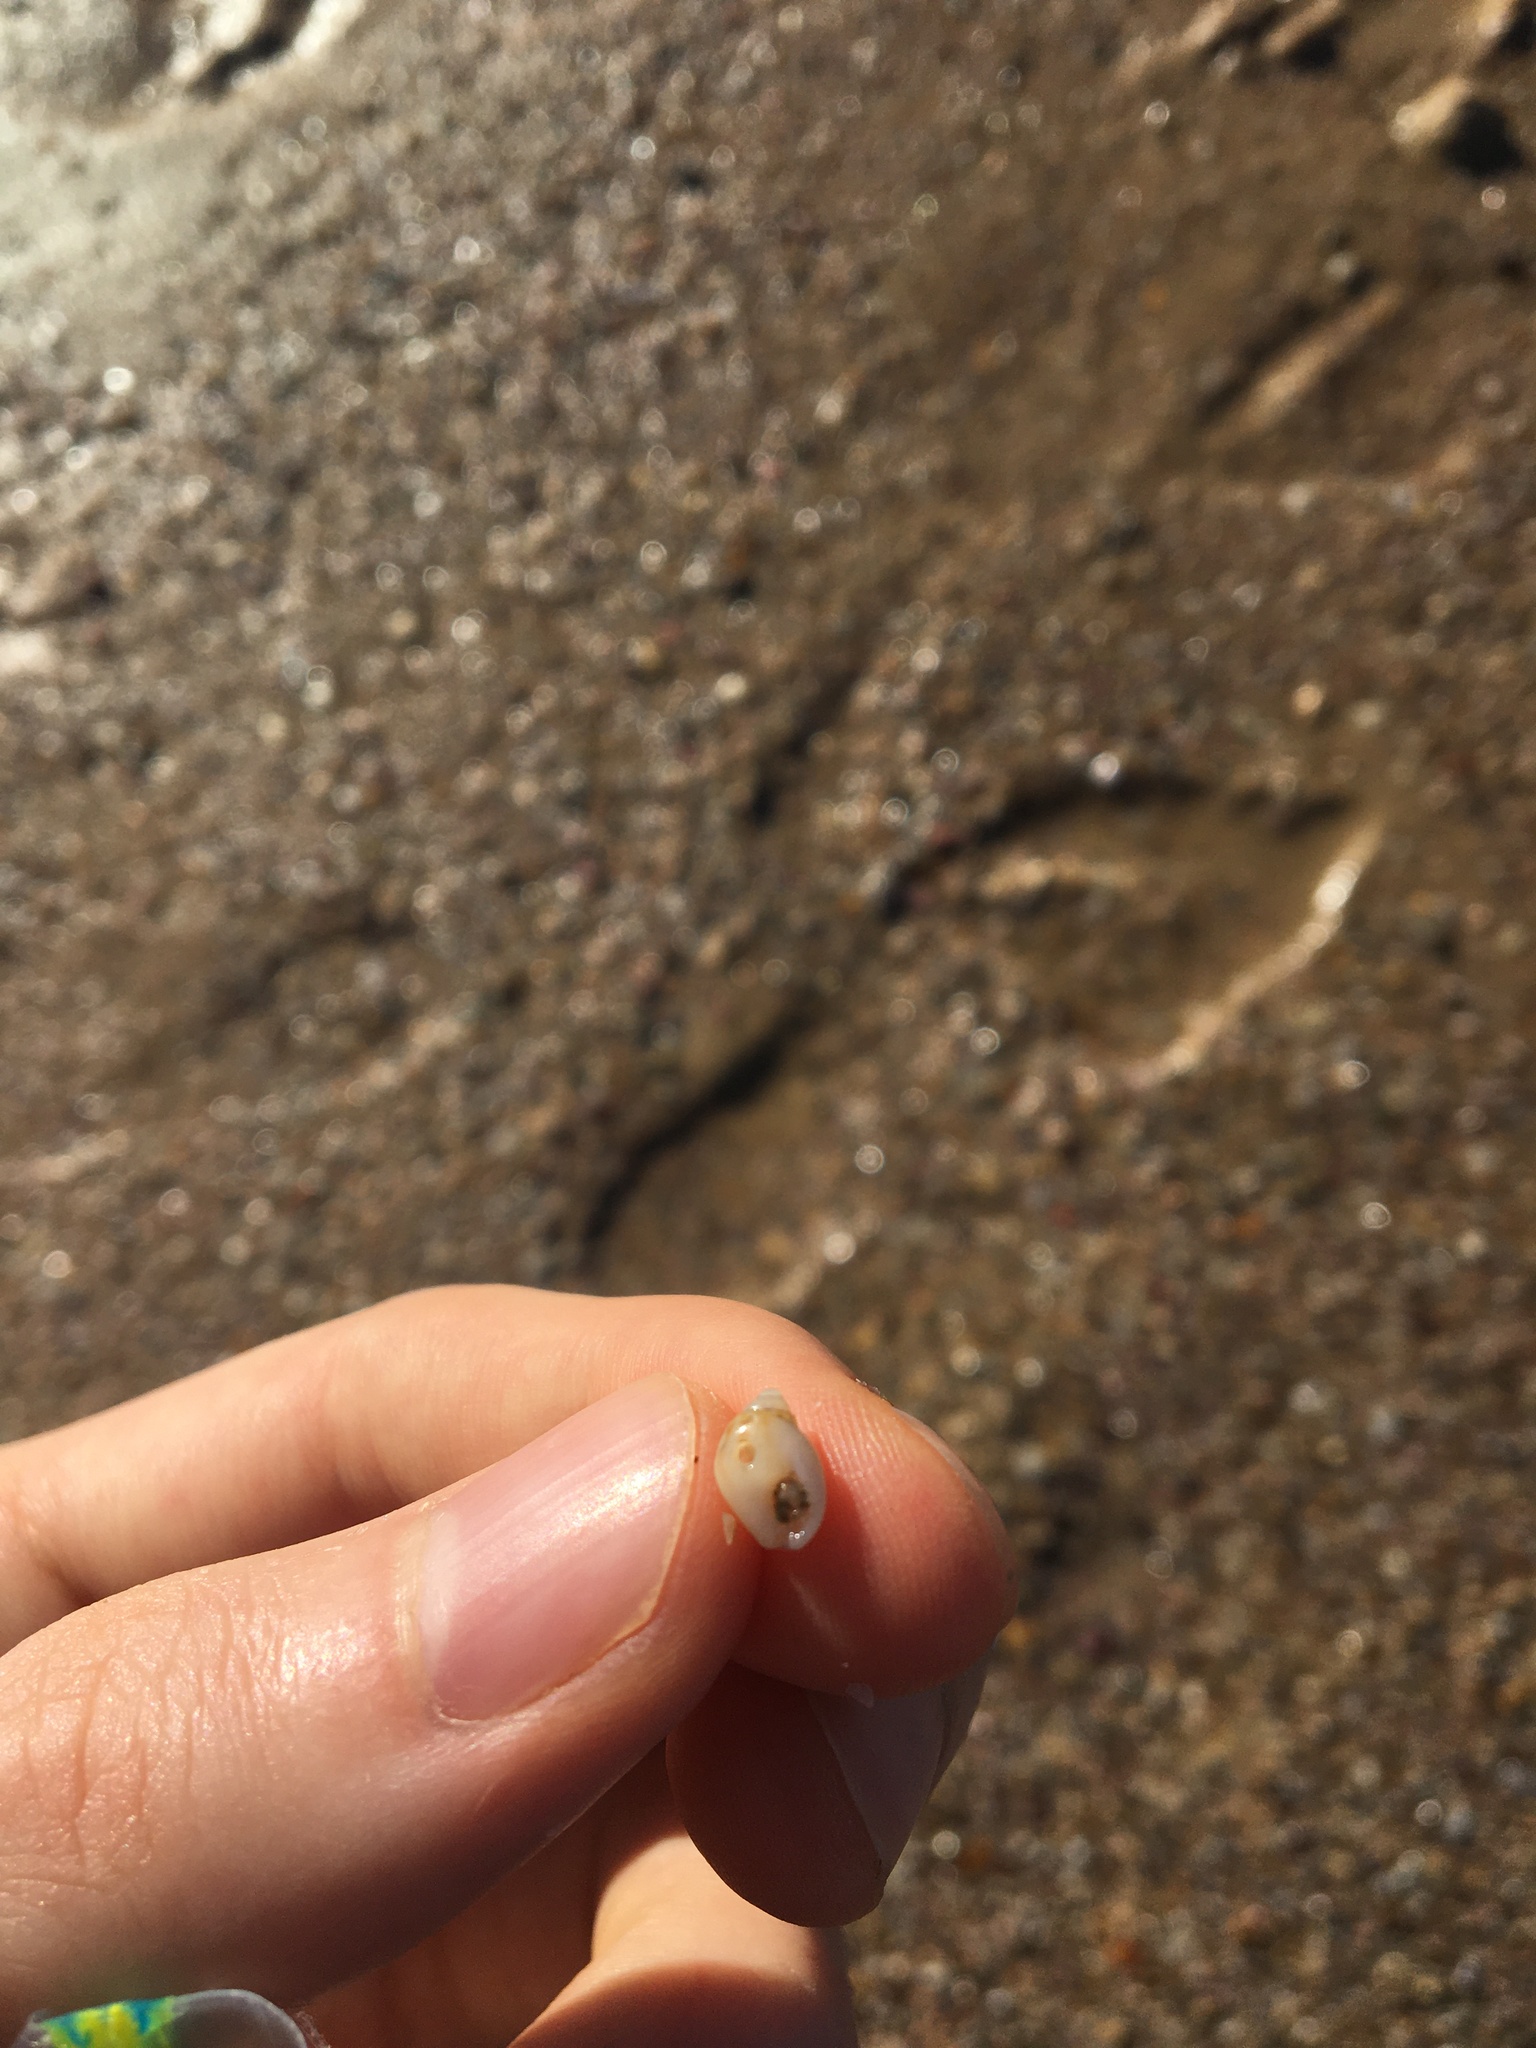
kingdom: Animalia
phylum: Mollusca
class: Gastropoda
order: Neogastropoda
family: Nassariidae
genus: Nassarius
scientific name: Nassarius jonasii
